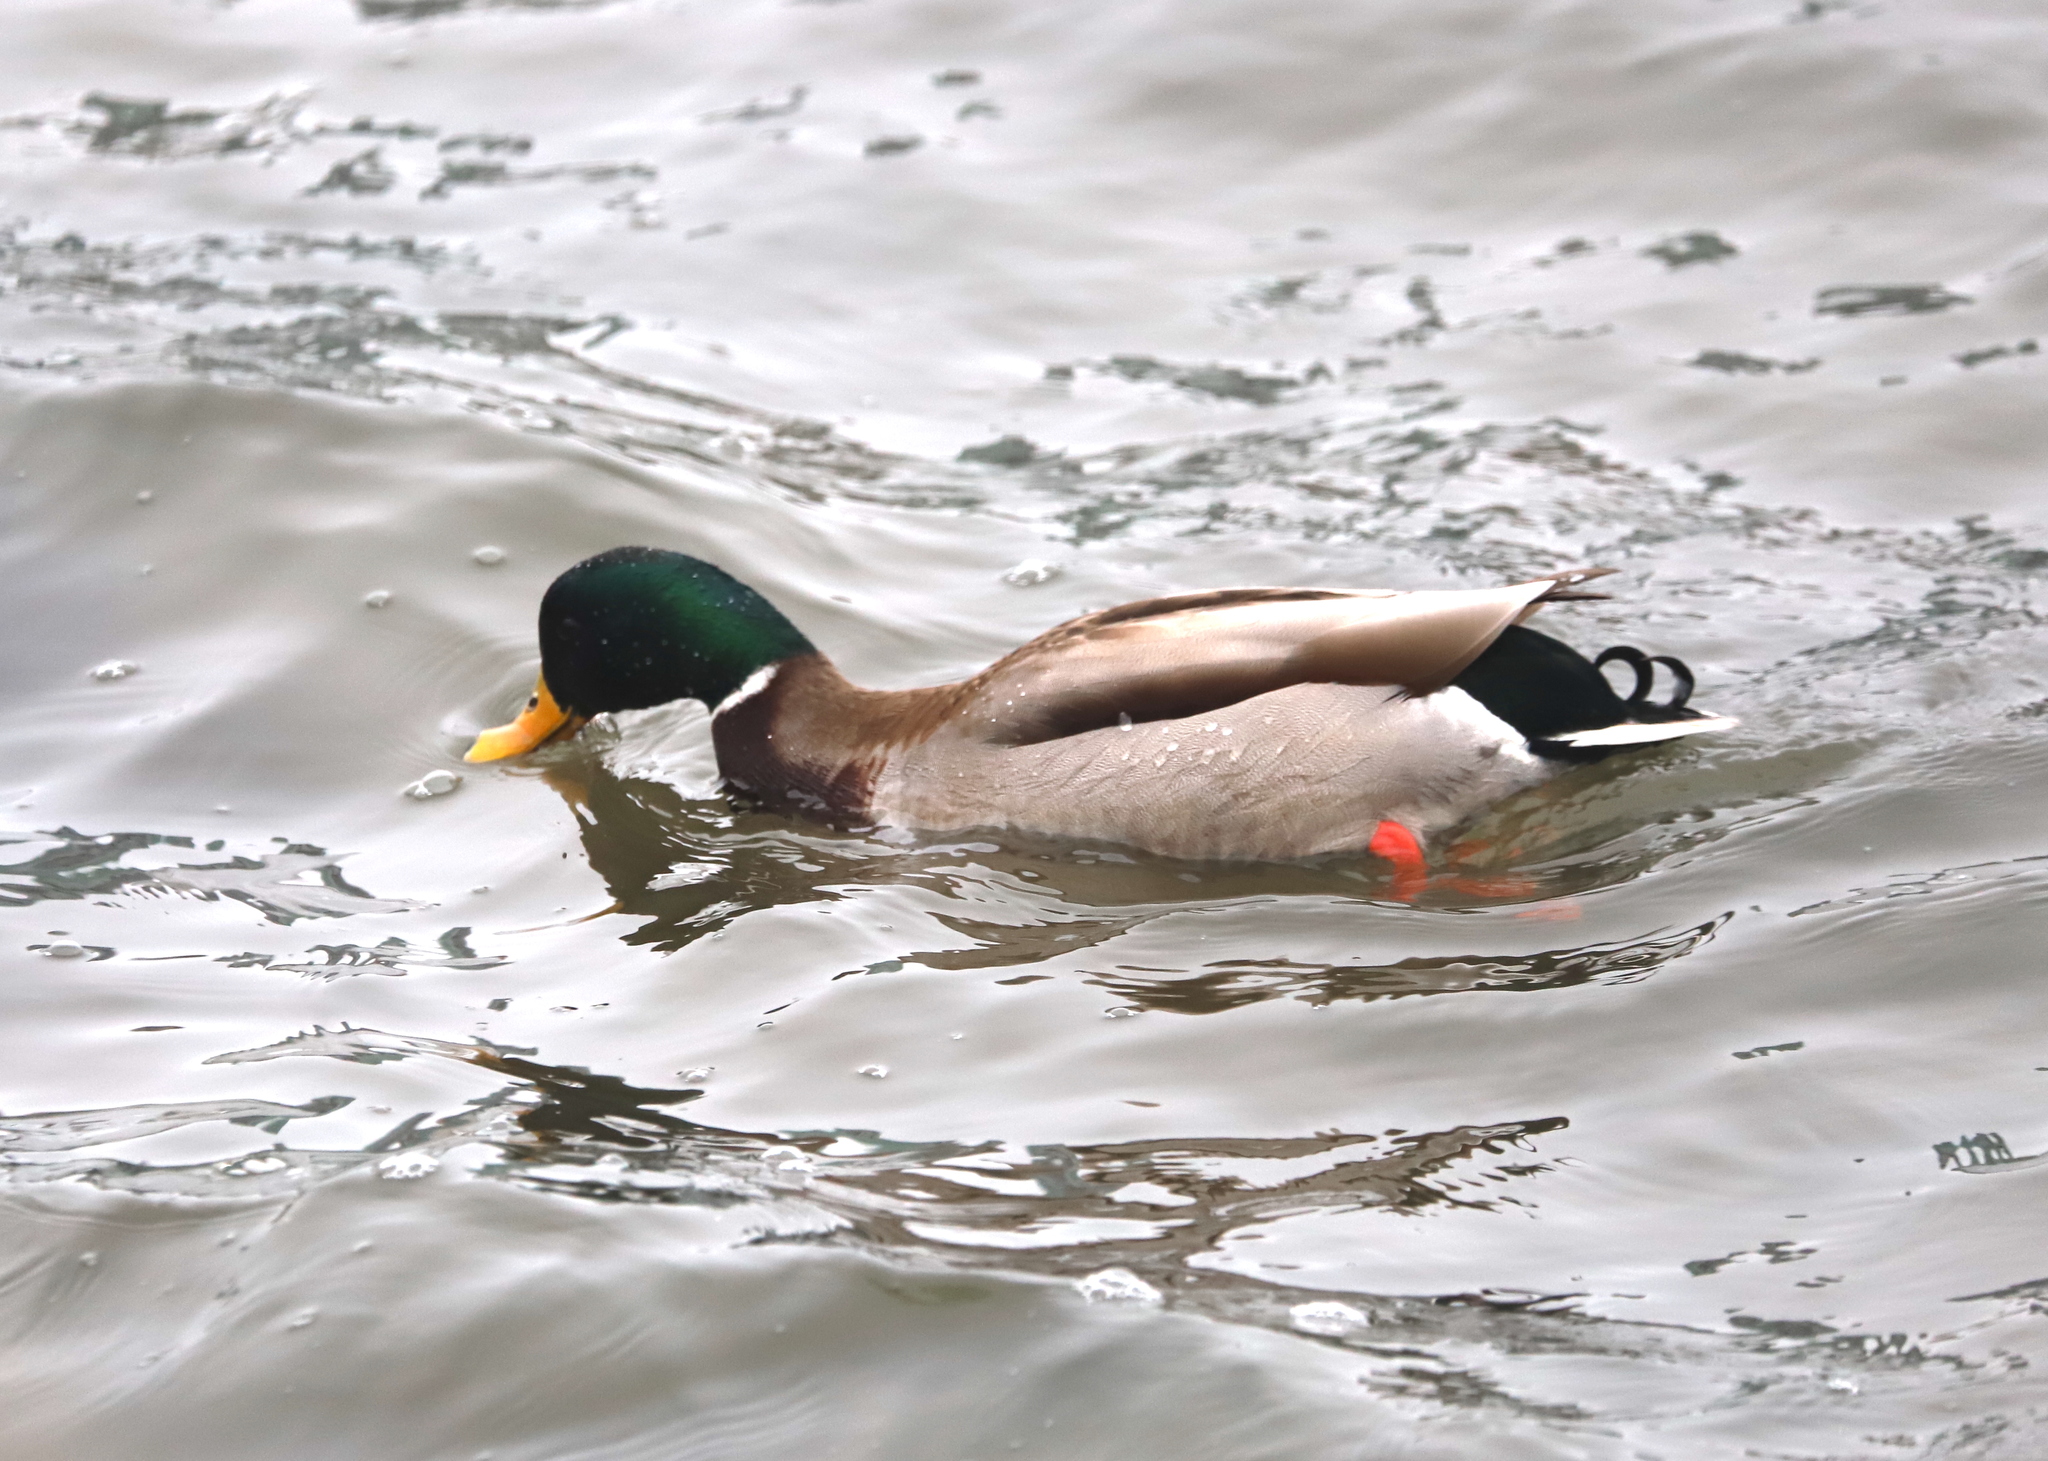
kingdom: Animalia
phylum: Chordata
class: Aves
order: Anseriformes
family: Anatidae
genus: Anas
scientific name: Anas platyrhynchos
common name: Mallard
